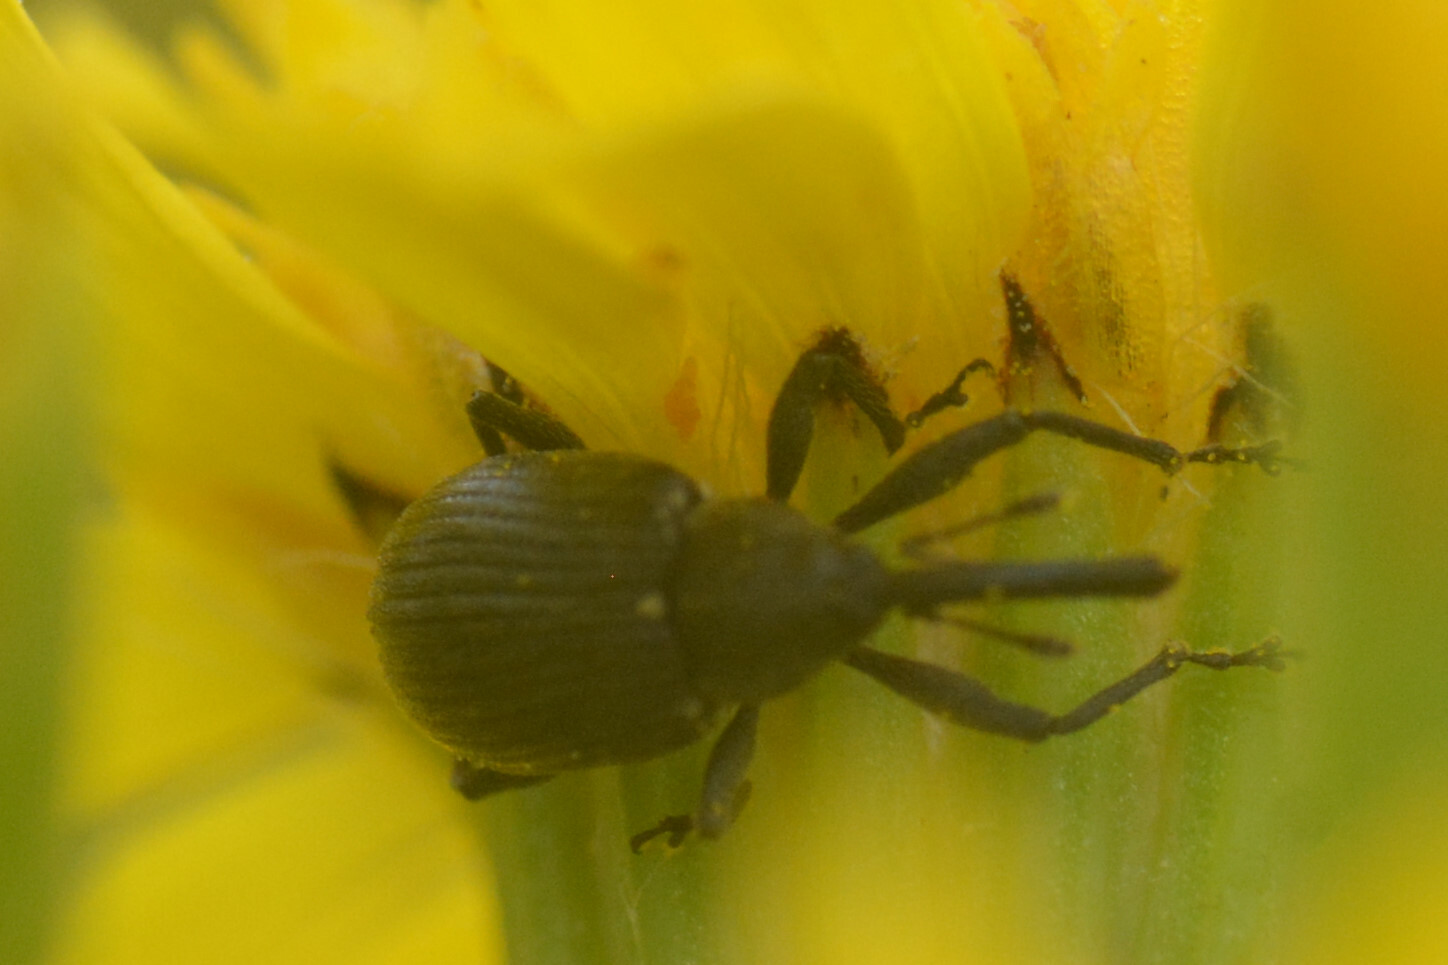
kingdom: Animalia
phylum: Arthropoda
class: Insecta
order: Coleoptera
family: Curculionidae
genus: Anthonomus
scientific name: Anthonomus rubi
